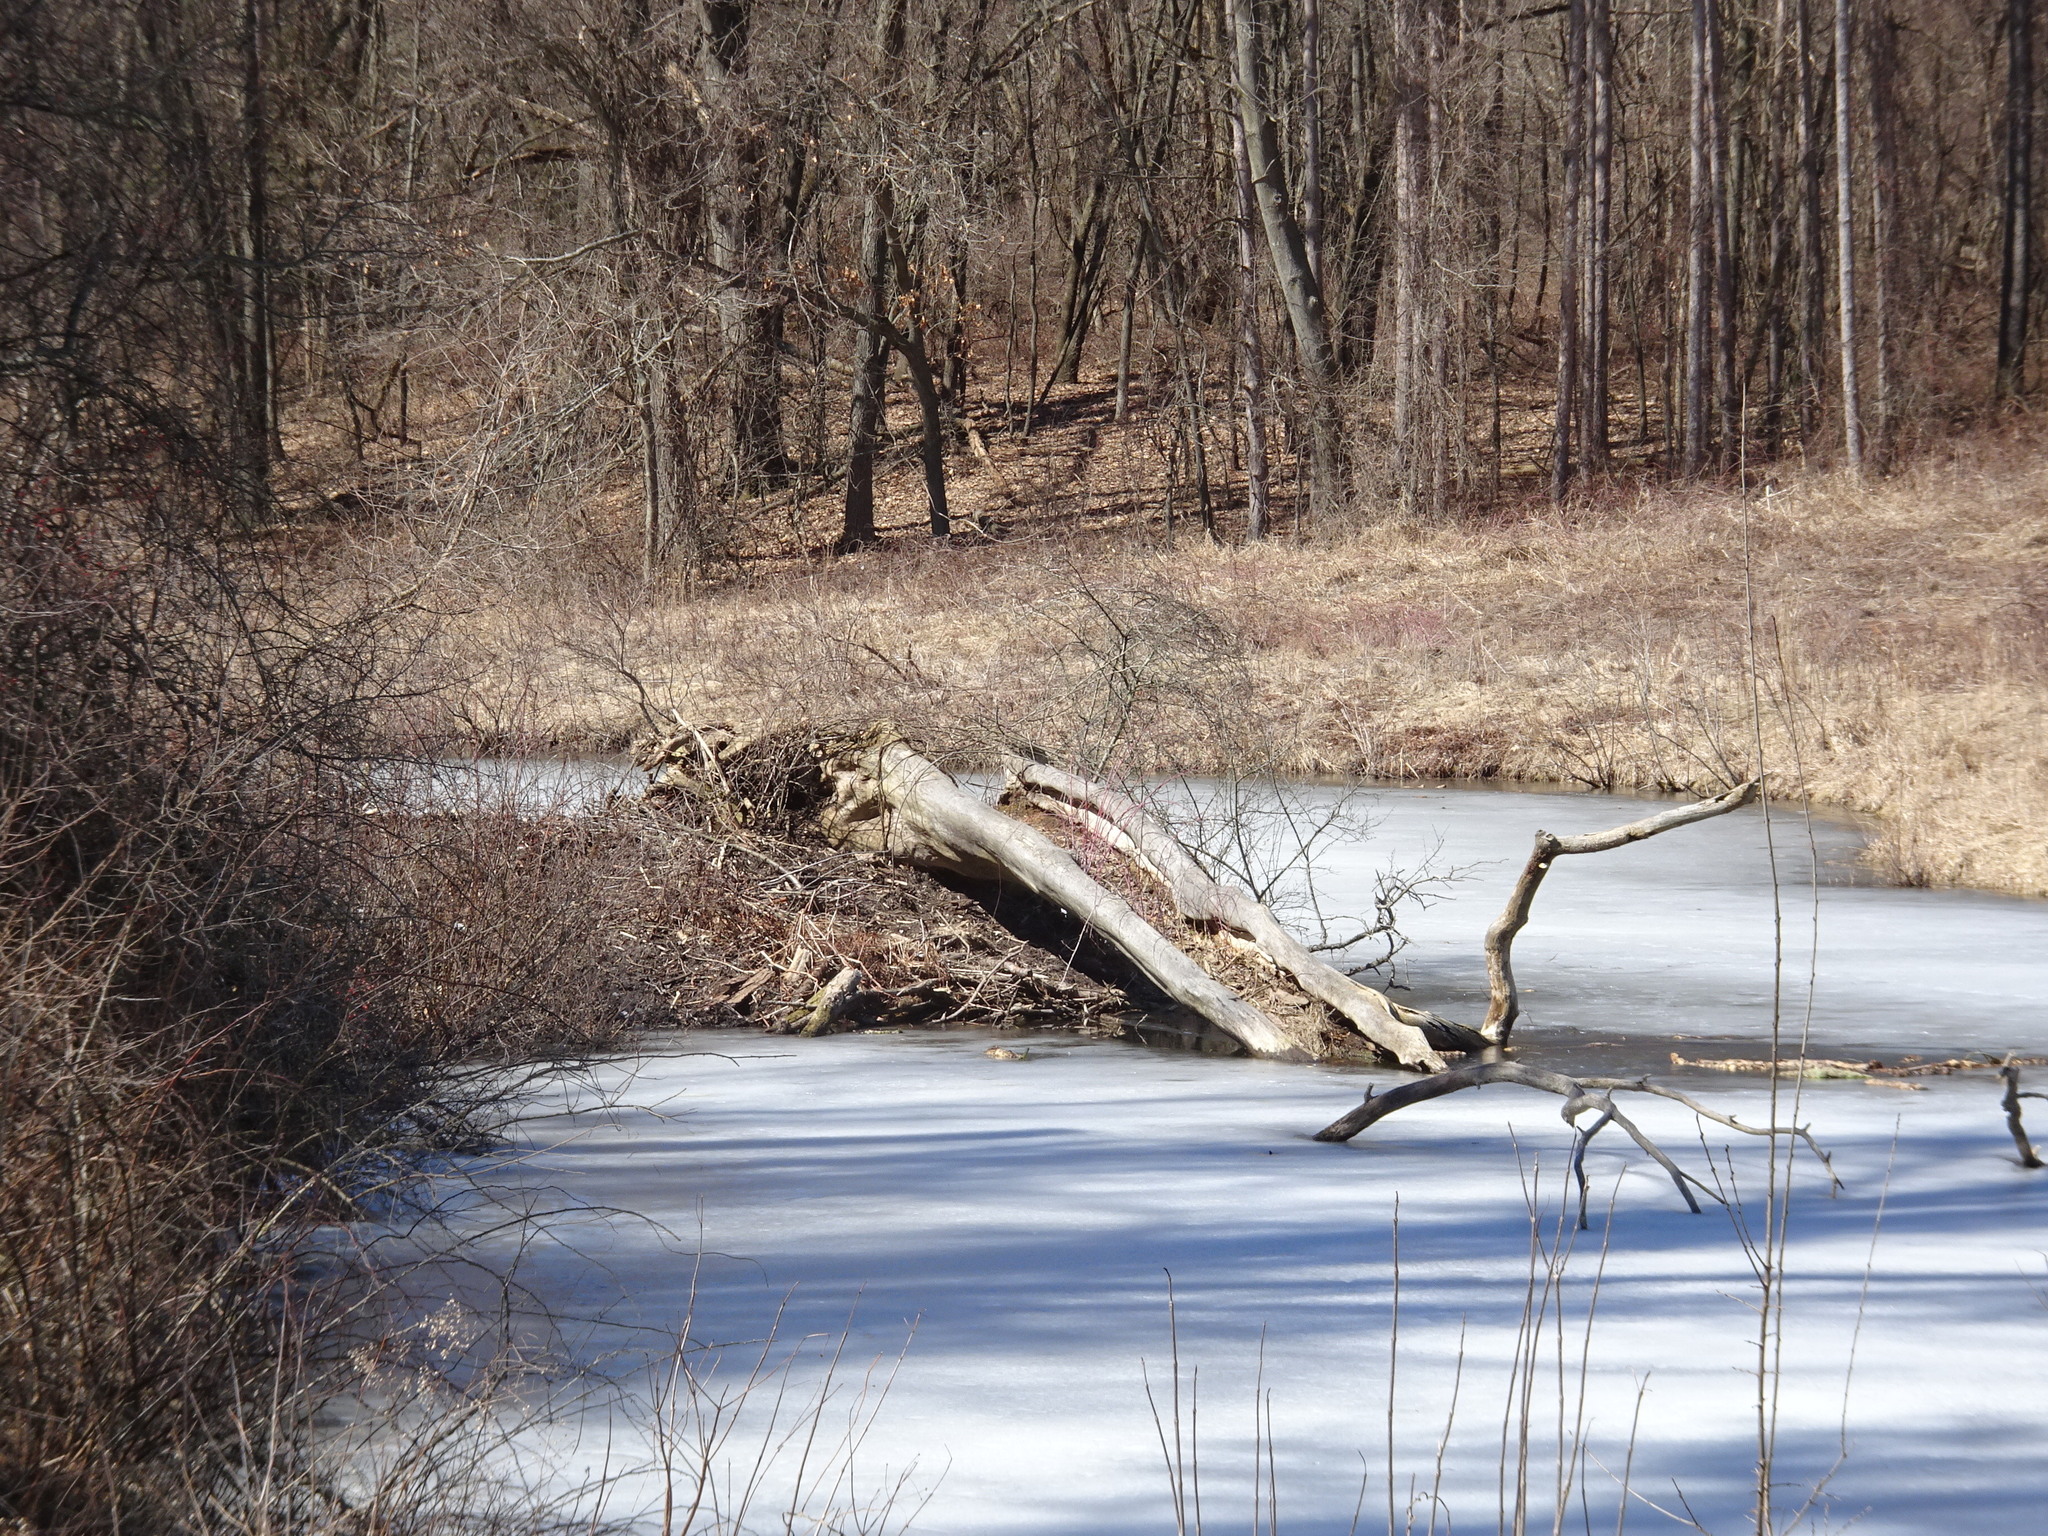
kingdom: Animalia
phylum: Chordata
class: Mammalia
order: Rodentia
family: Castoridae
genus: Castor
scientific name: Castor canadensis
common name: American beaver
